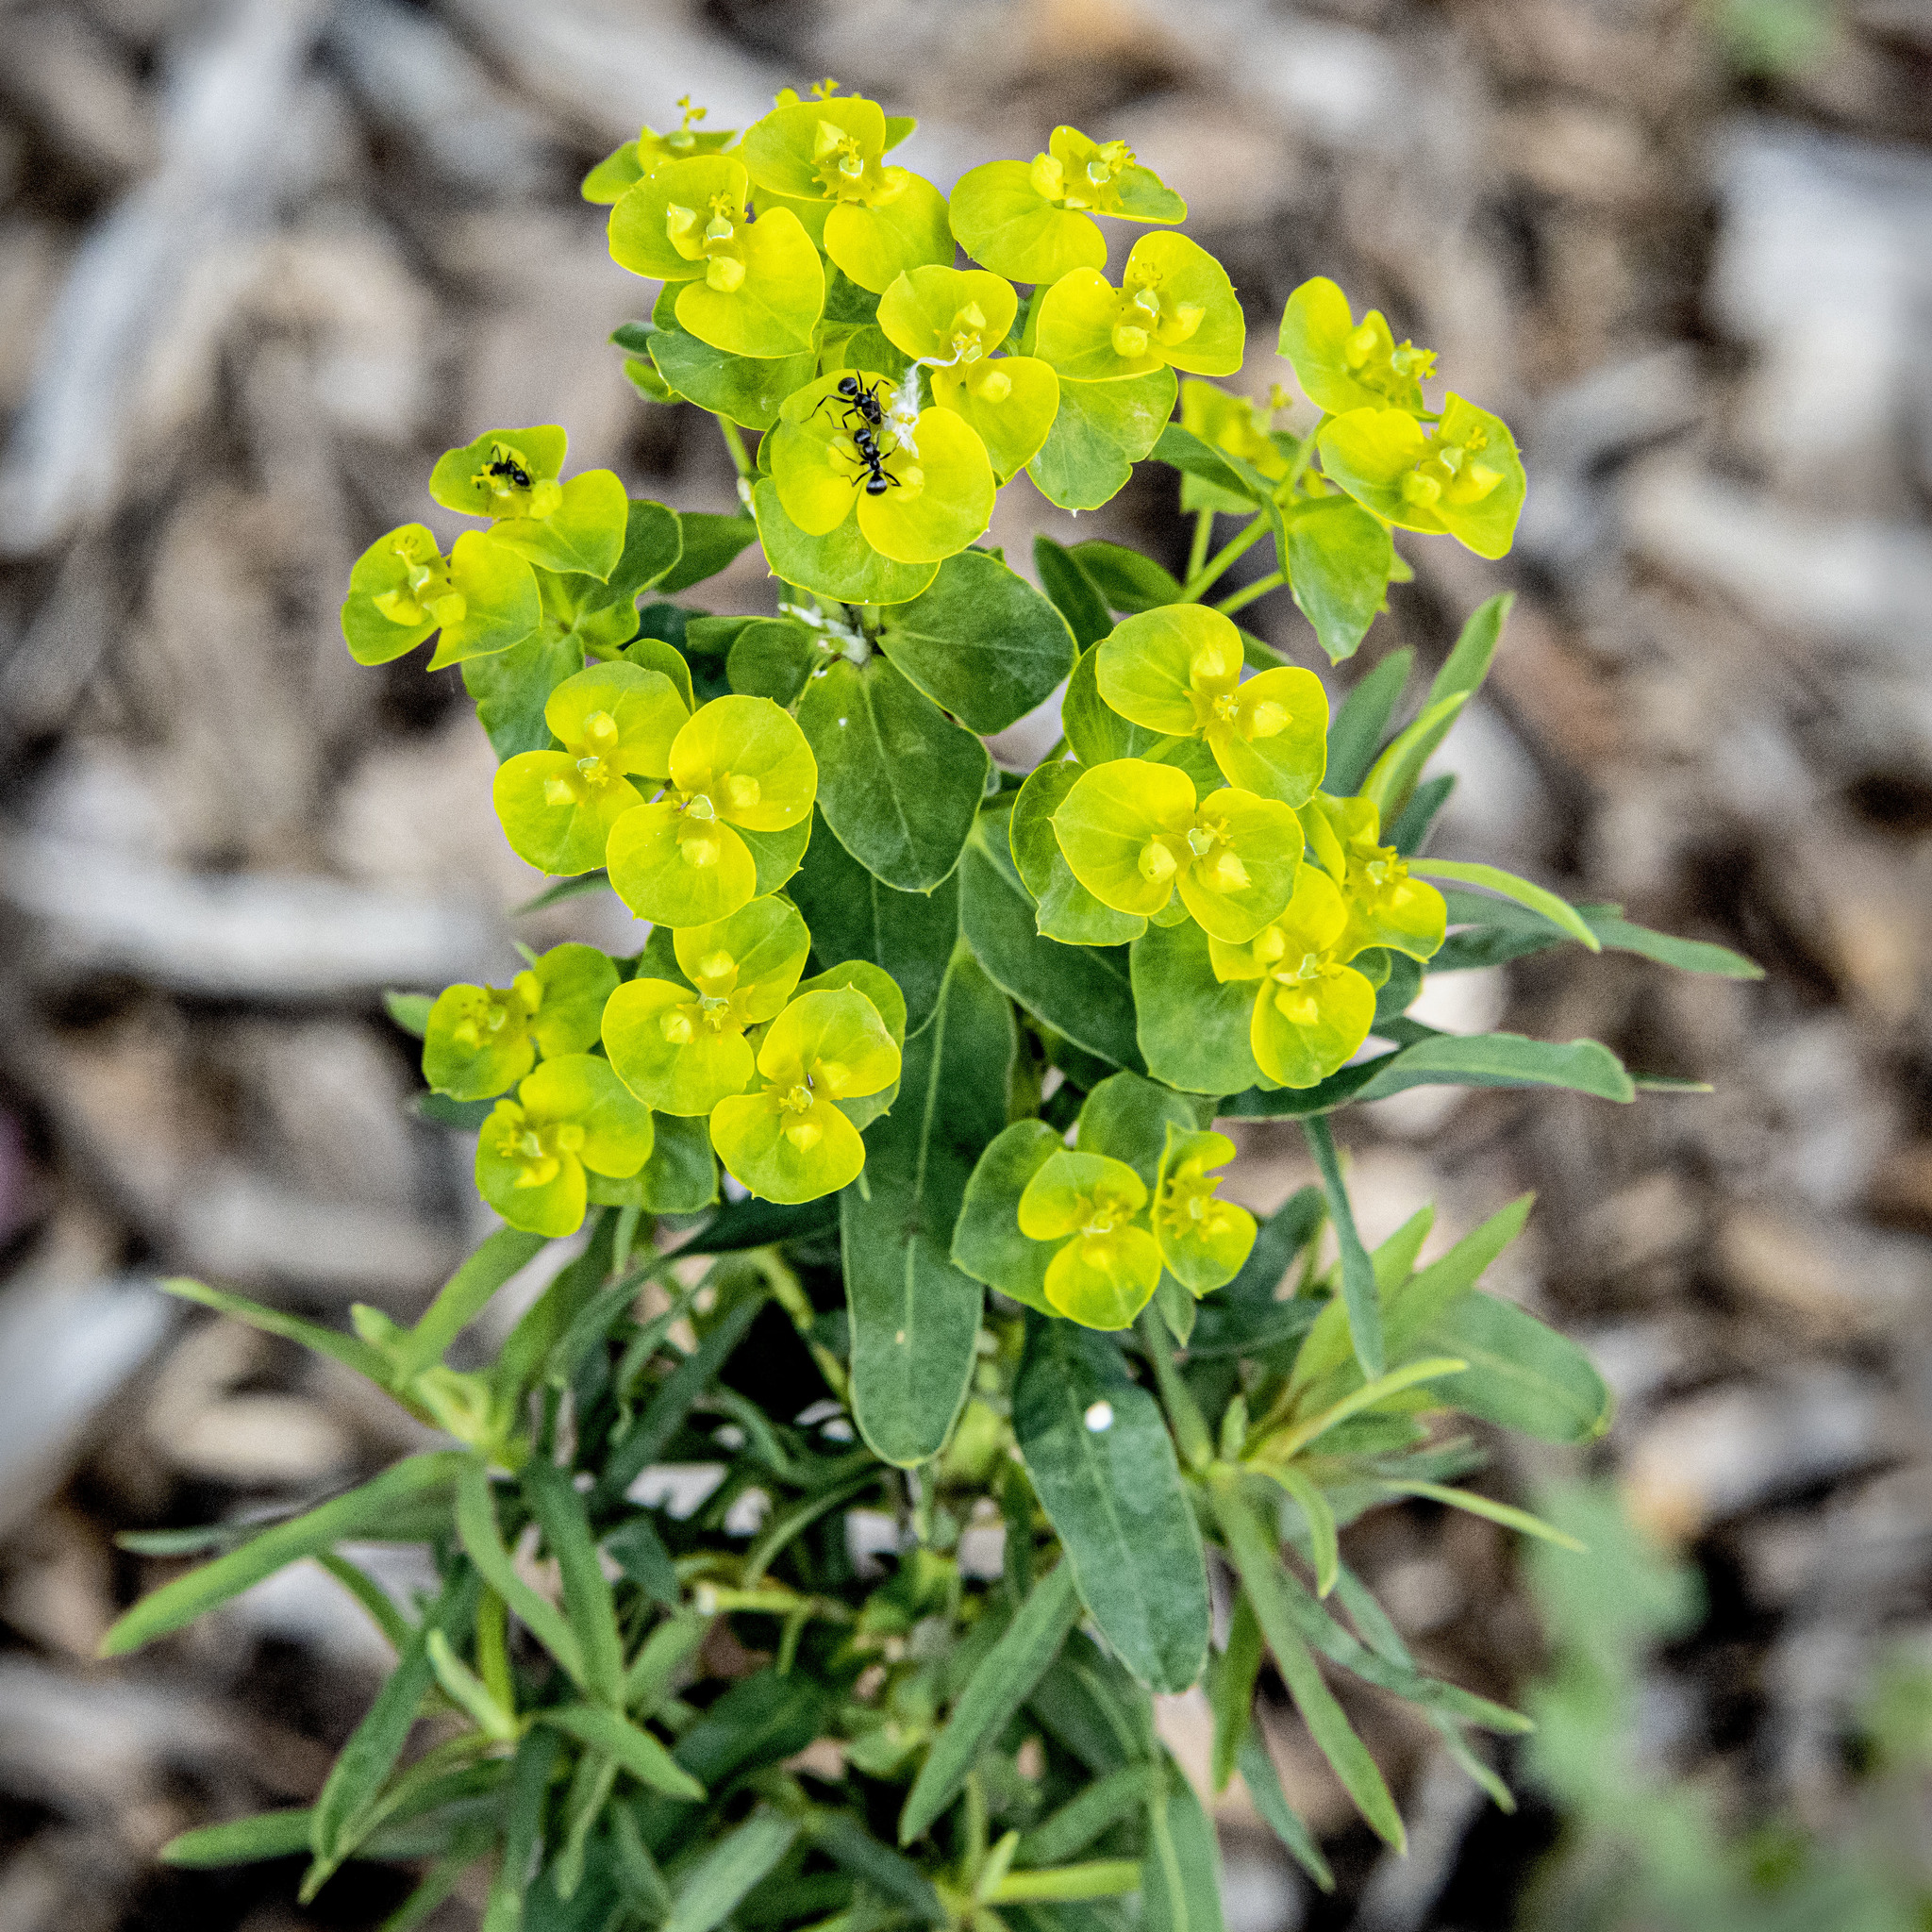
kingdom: Plantae
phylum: Tracheophyta
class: Magnoliopsida
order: Malpighiales
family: Euphorbiaceae
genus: Euphorbia
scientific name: Euphorbia virgata
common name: Leafy spurge
